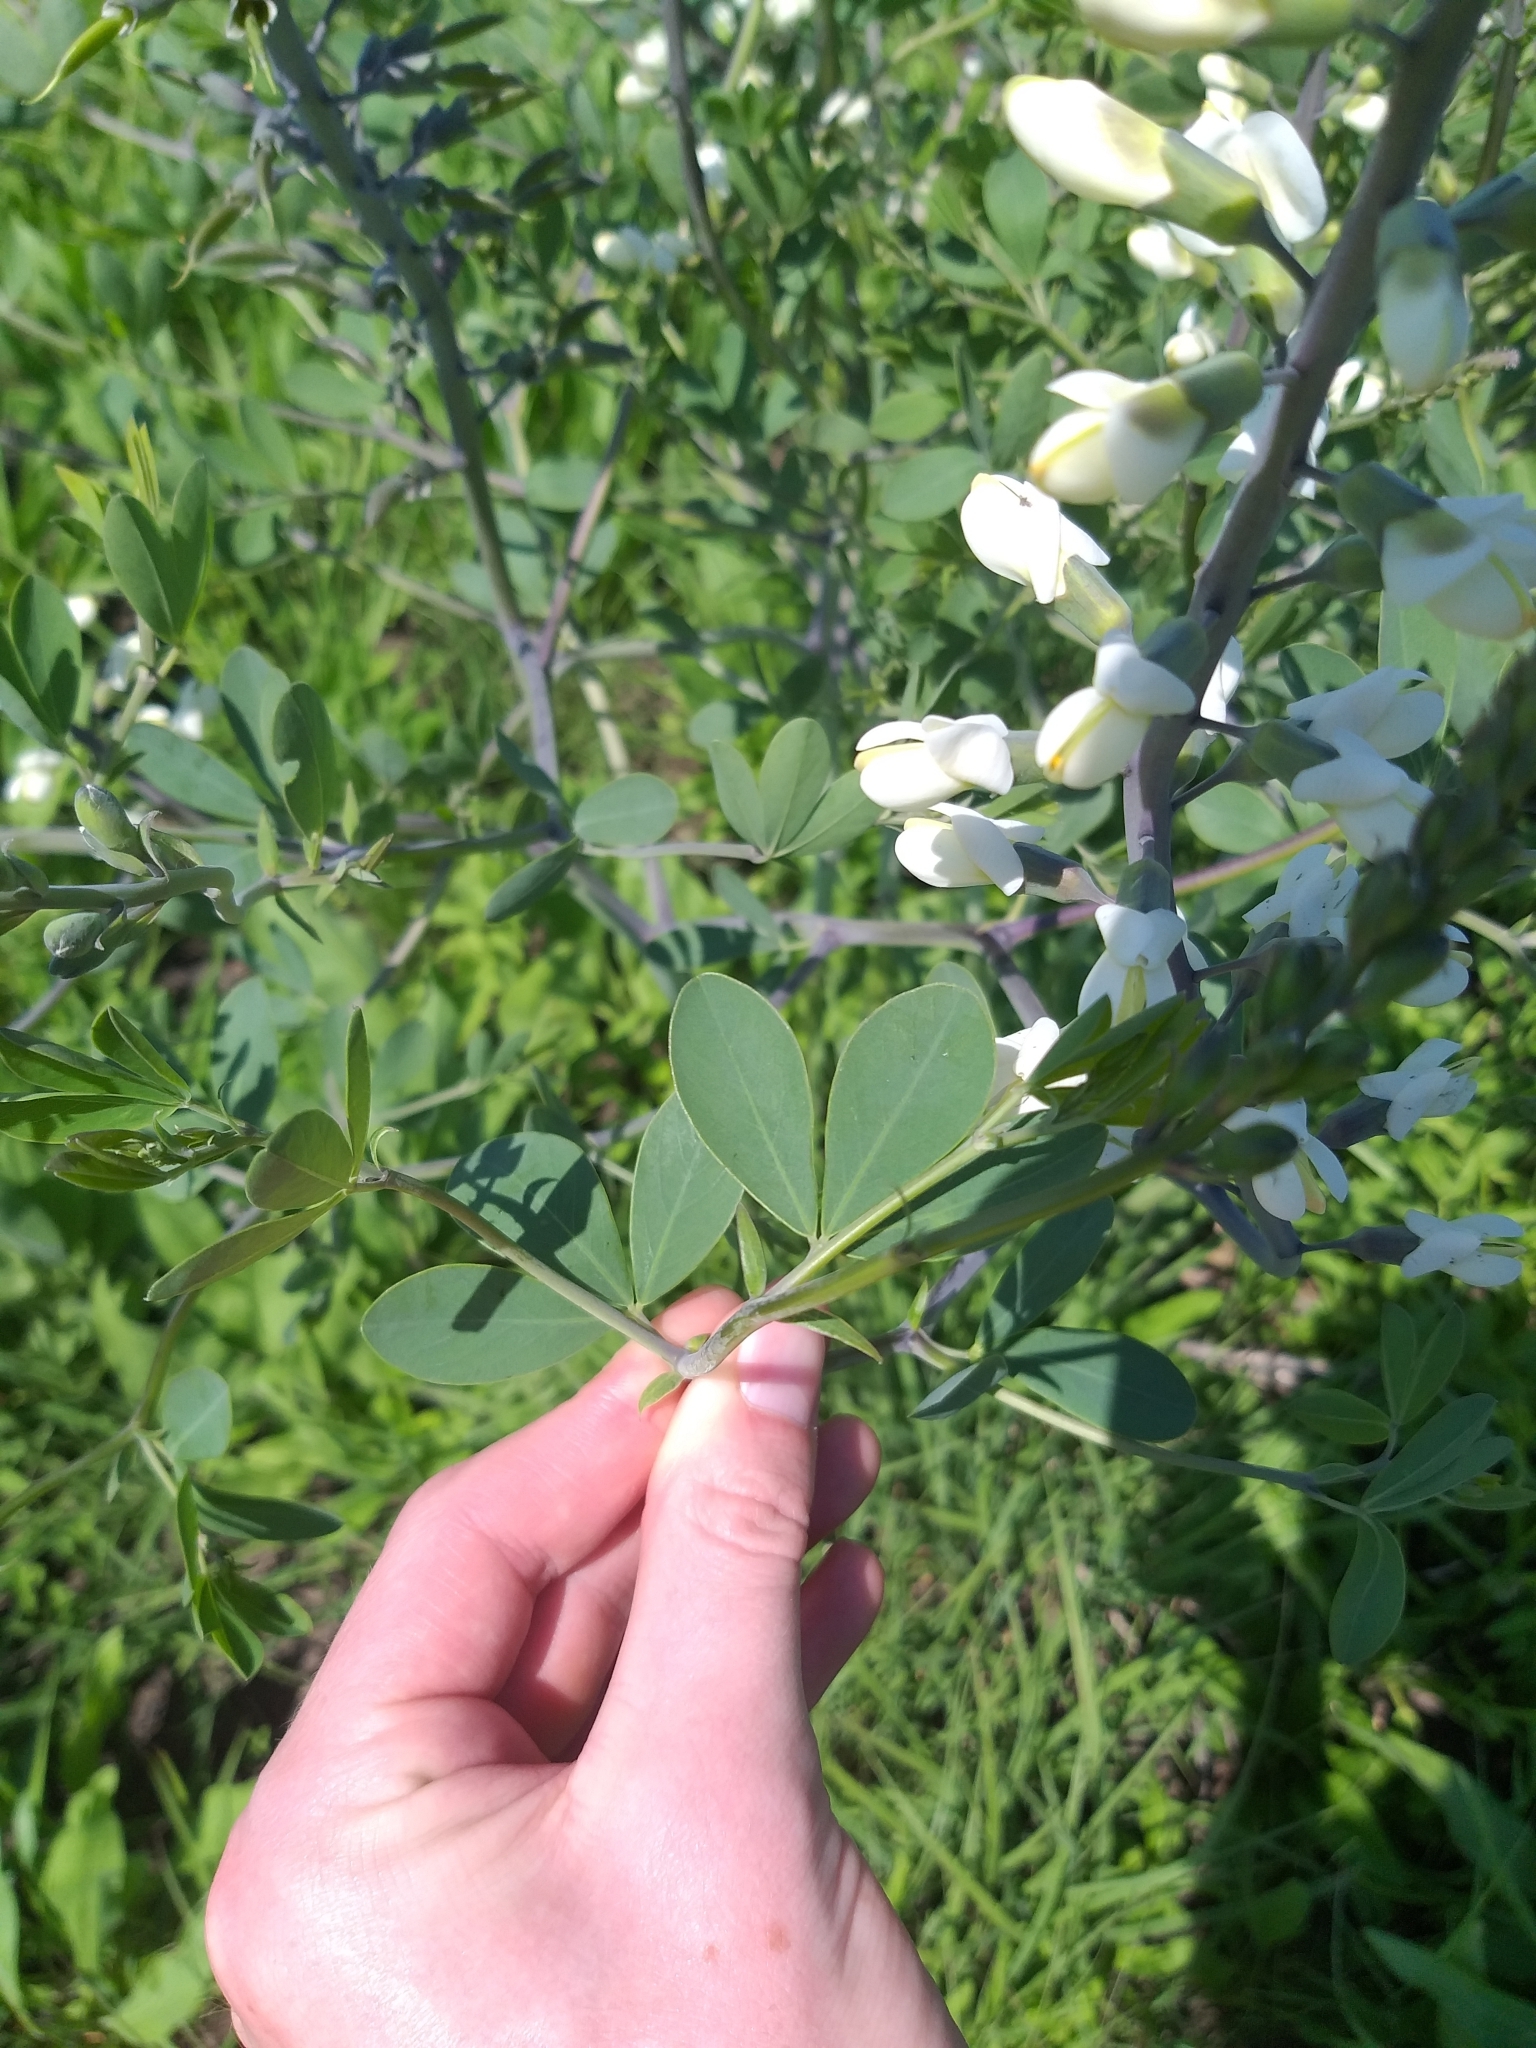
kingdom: Plantae
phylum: Tracheophyta
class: Magnoliopsida
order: Fabales
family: Fabaceae
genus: Baptisia
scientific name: Baptisia alba
